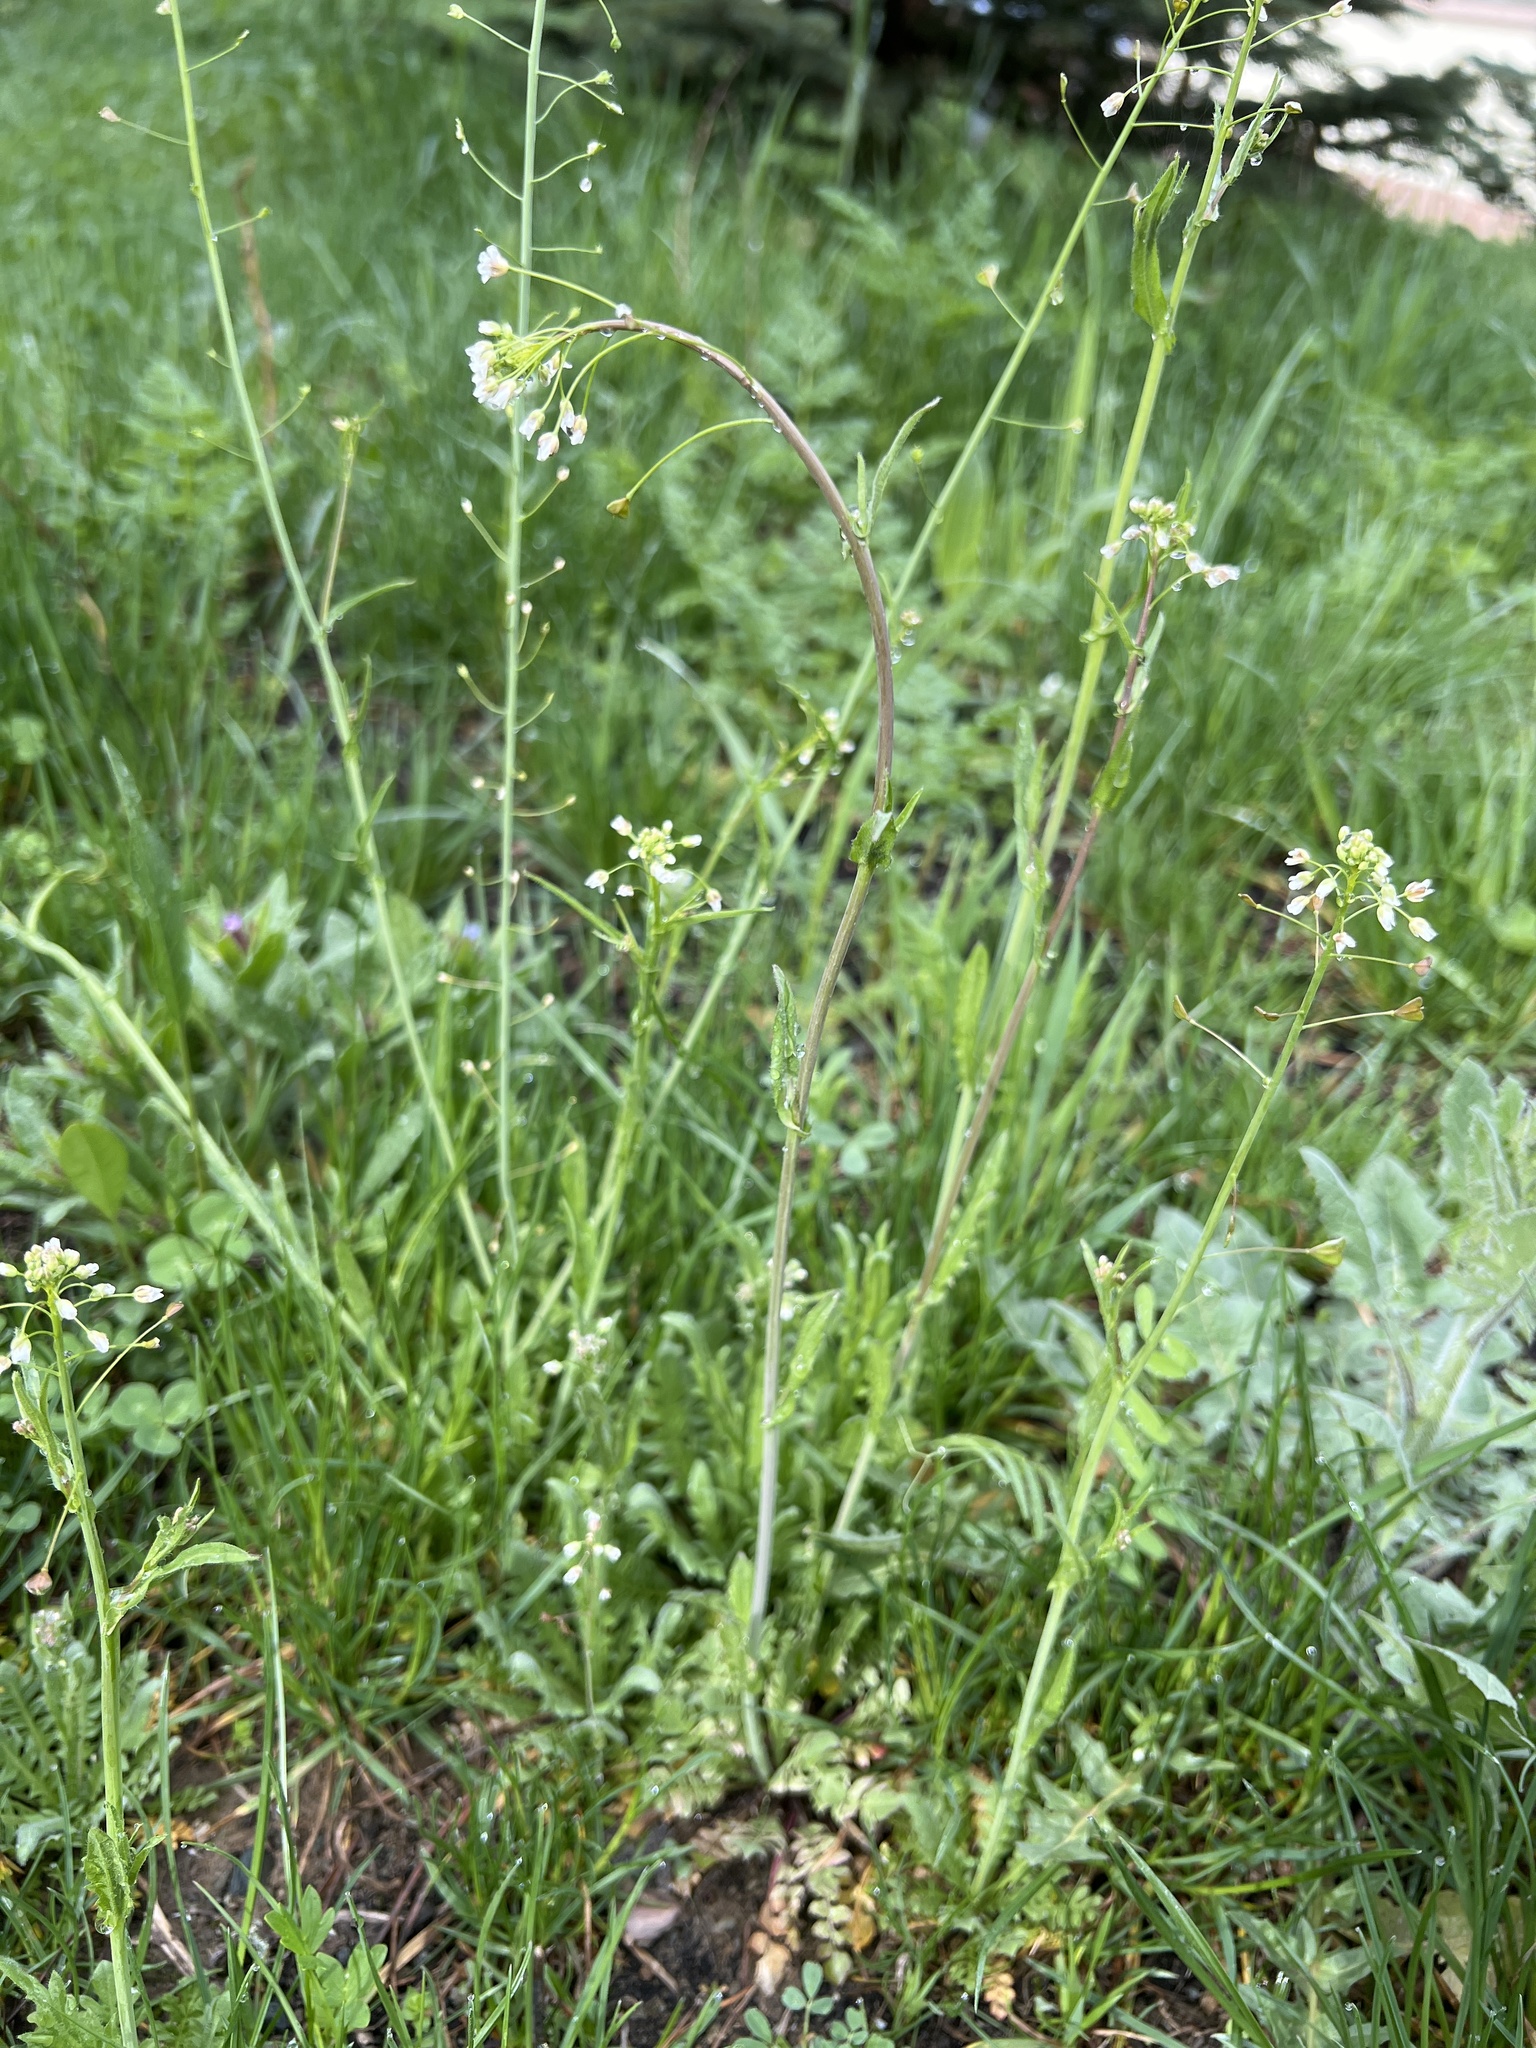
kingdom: Plantae
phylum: Tracheophyta
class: Magnoliopsida
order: Brassicales
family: Brassicaceae
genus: Capsella
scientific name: Capsella bursa-pastoris
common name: Shepherd's purse
